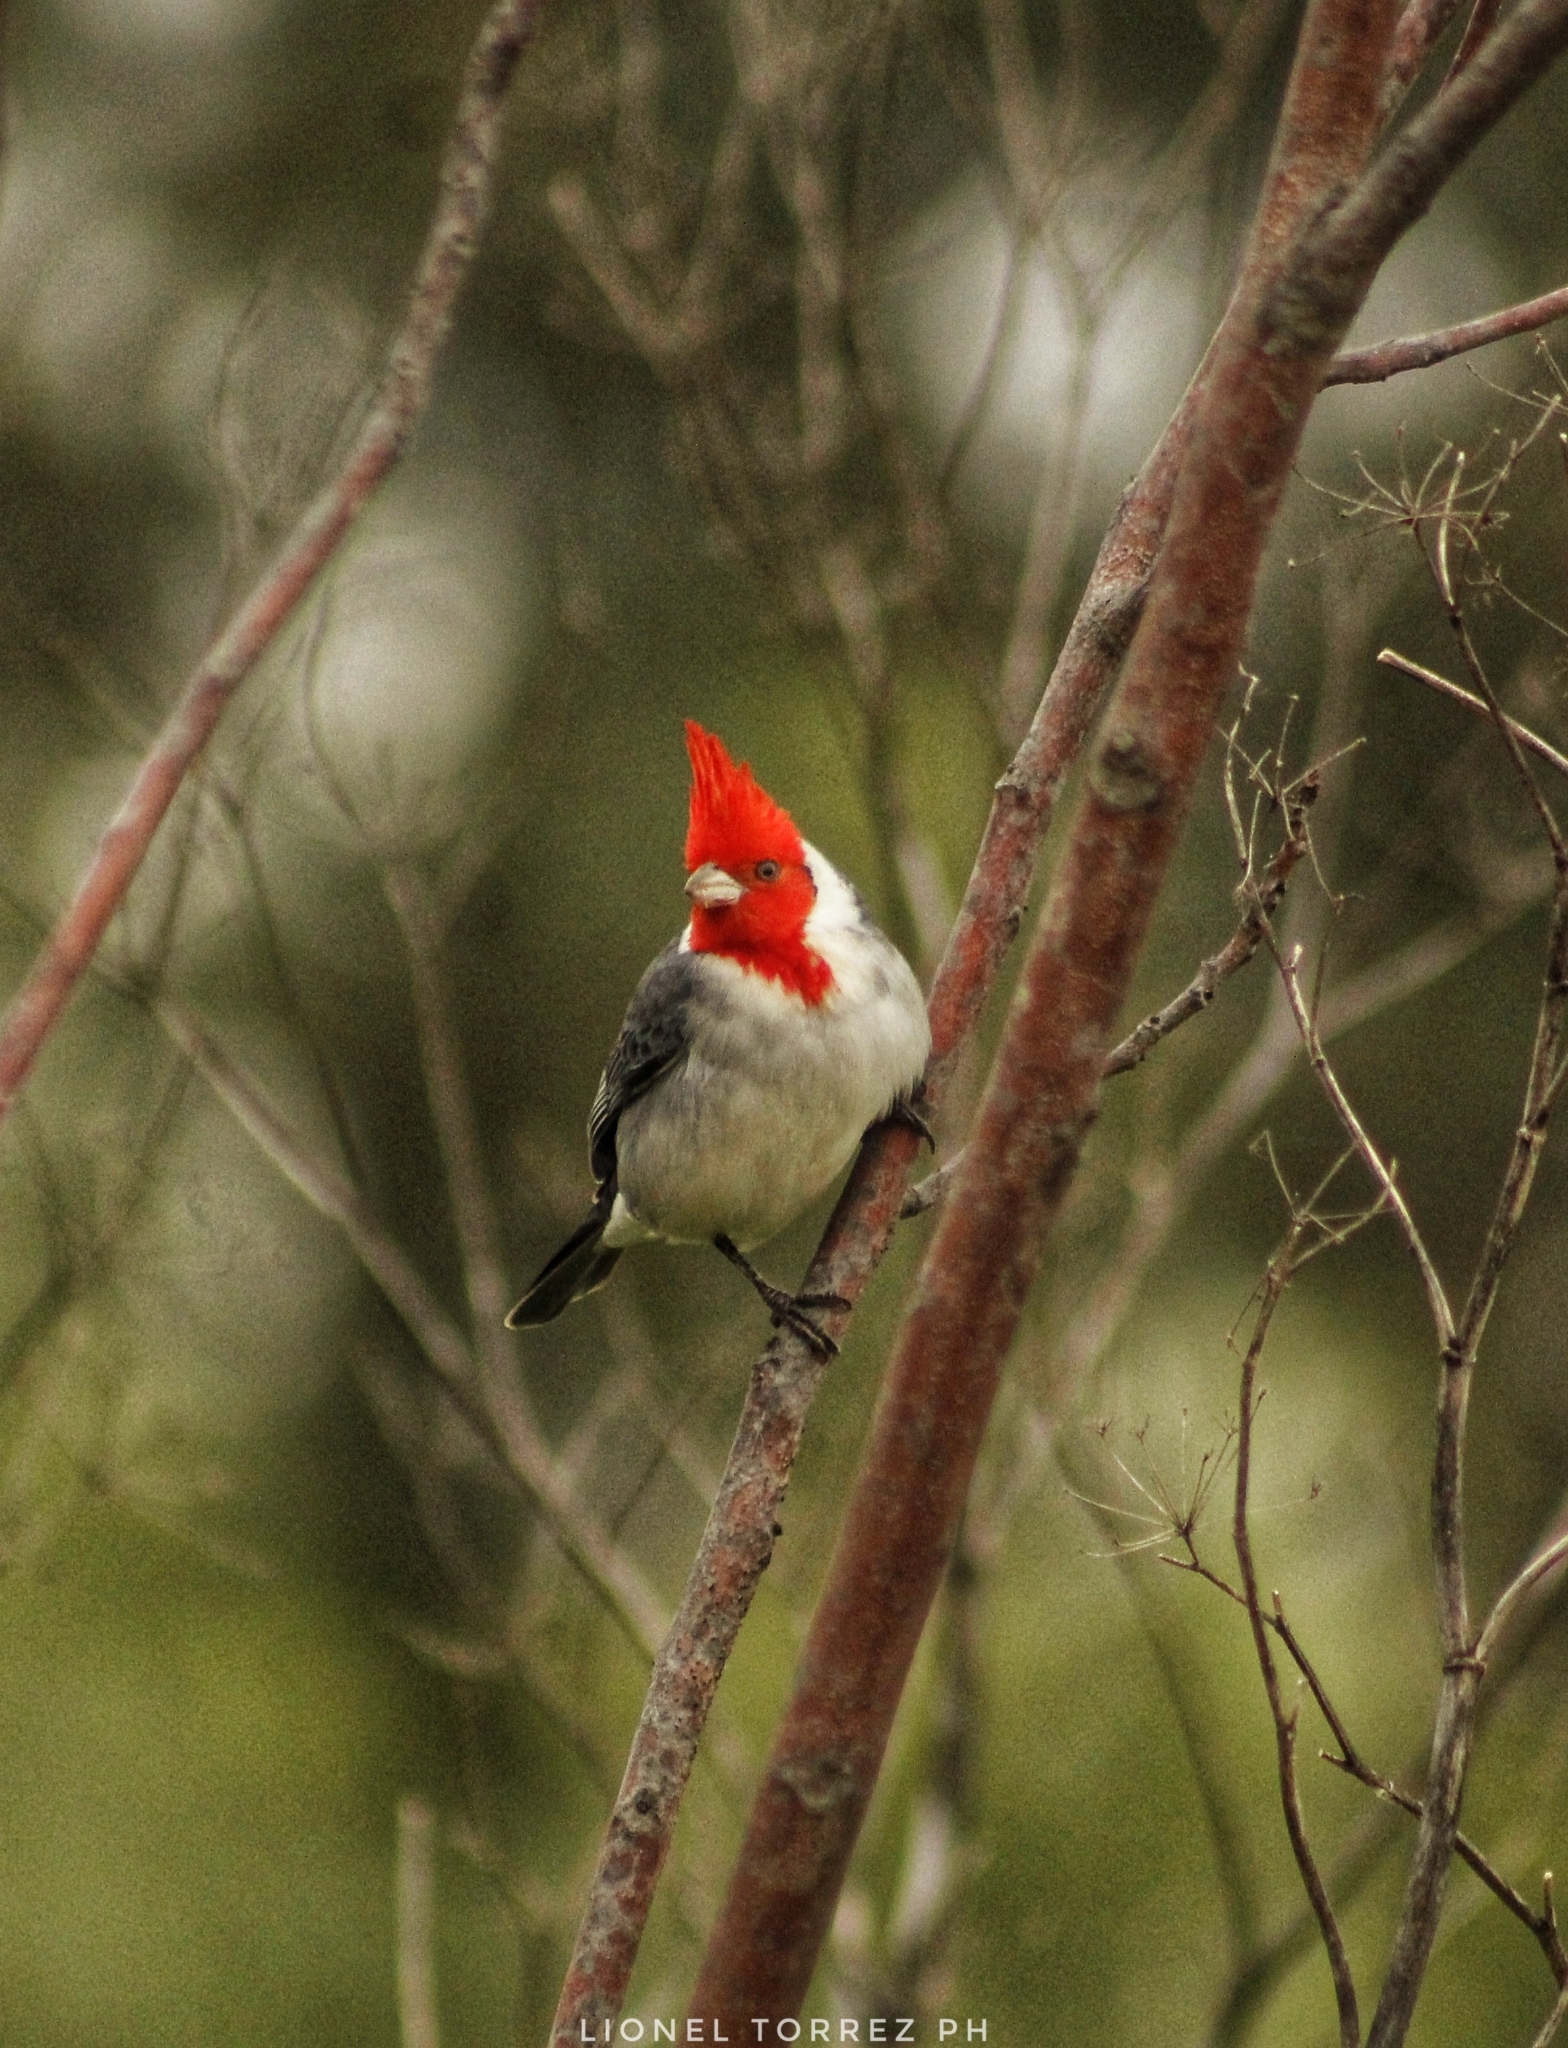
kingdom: Animalia
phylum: Chordata
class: Aves
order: Passeriformes
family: Thraupidae
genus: Paroaria
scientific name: Paroaria coronata
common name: Red-crested cardinal
